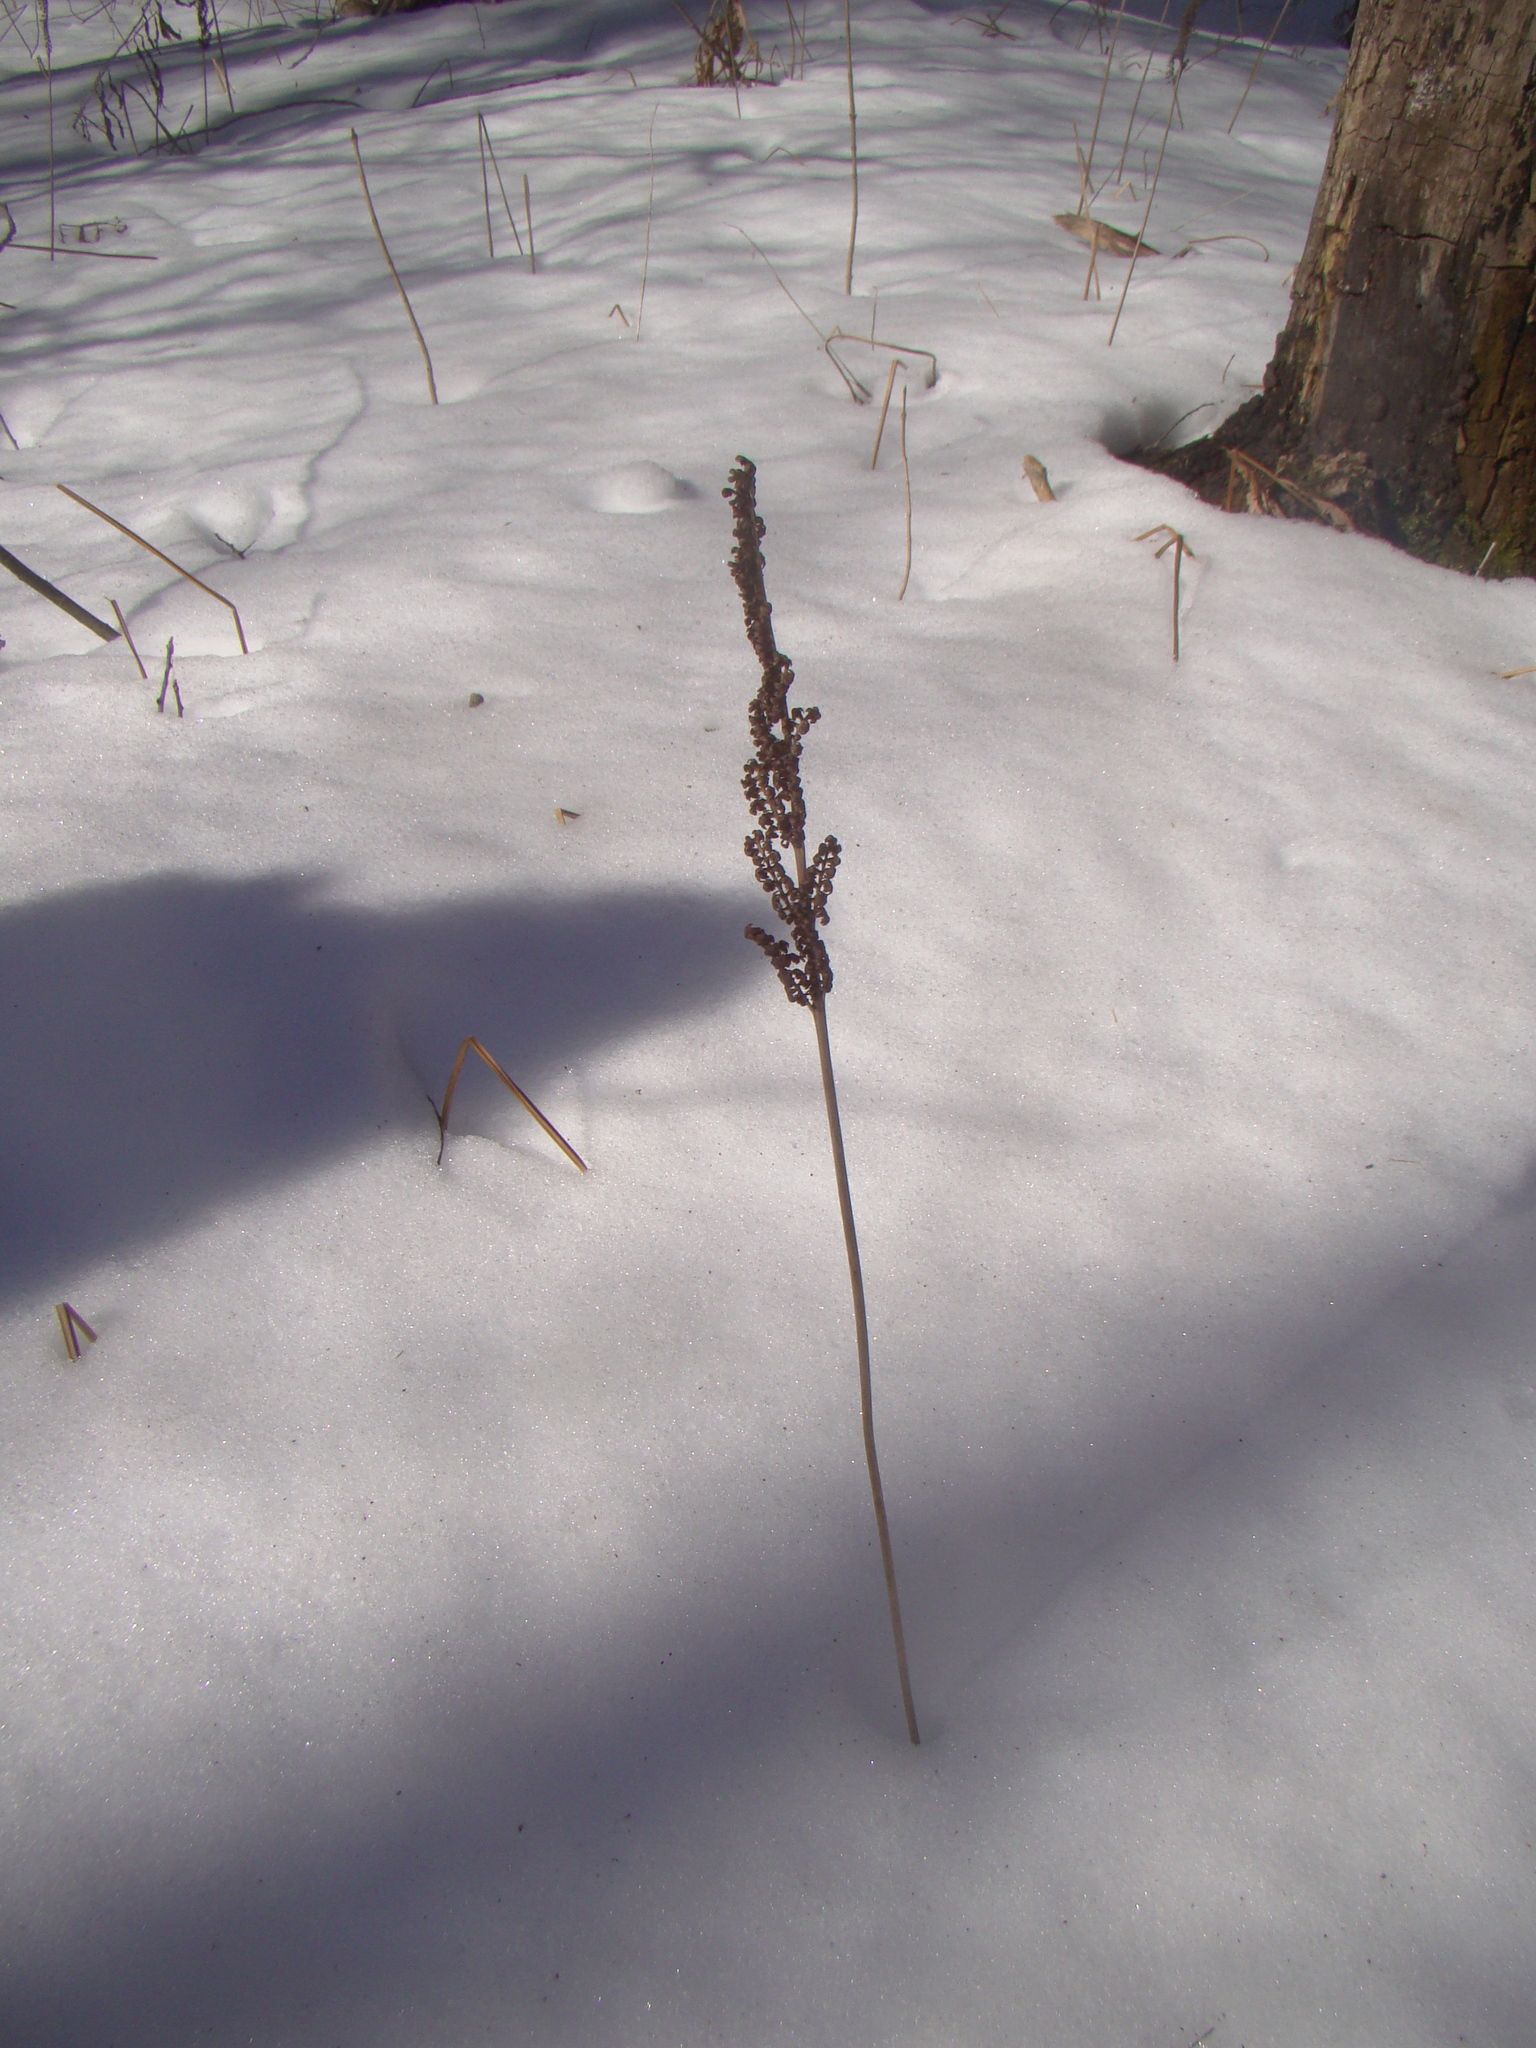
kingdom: Plantae
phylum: Tracheophyta
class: Polypodiopsida
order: Polypodiales
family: Onocleaceae
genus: Onoclea
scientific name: Onoclea sensibilis
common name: Sensitive fern
